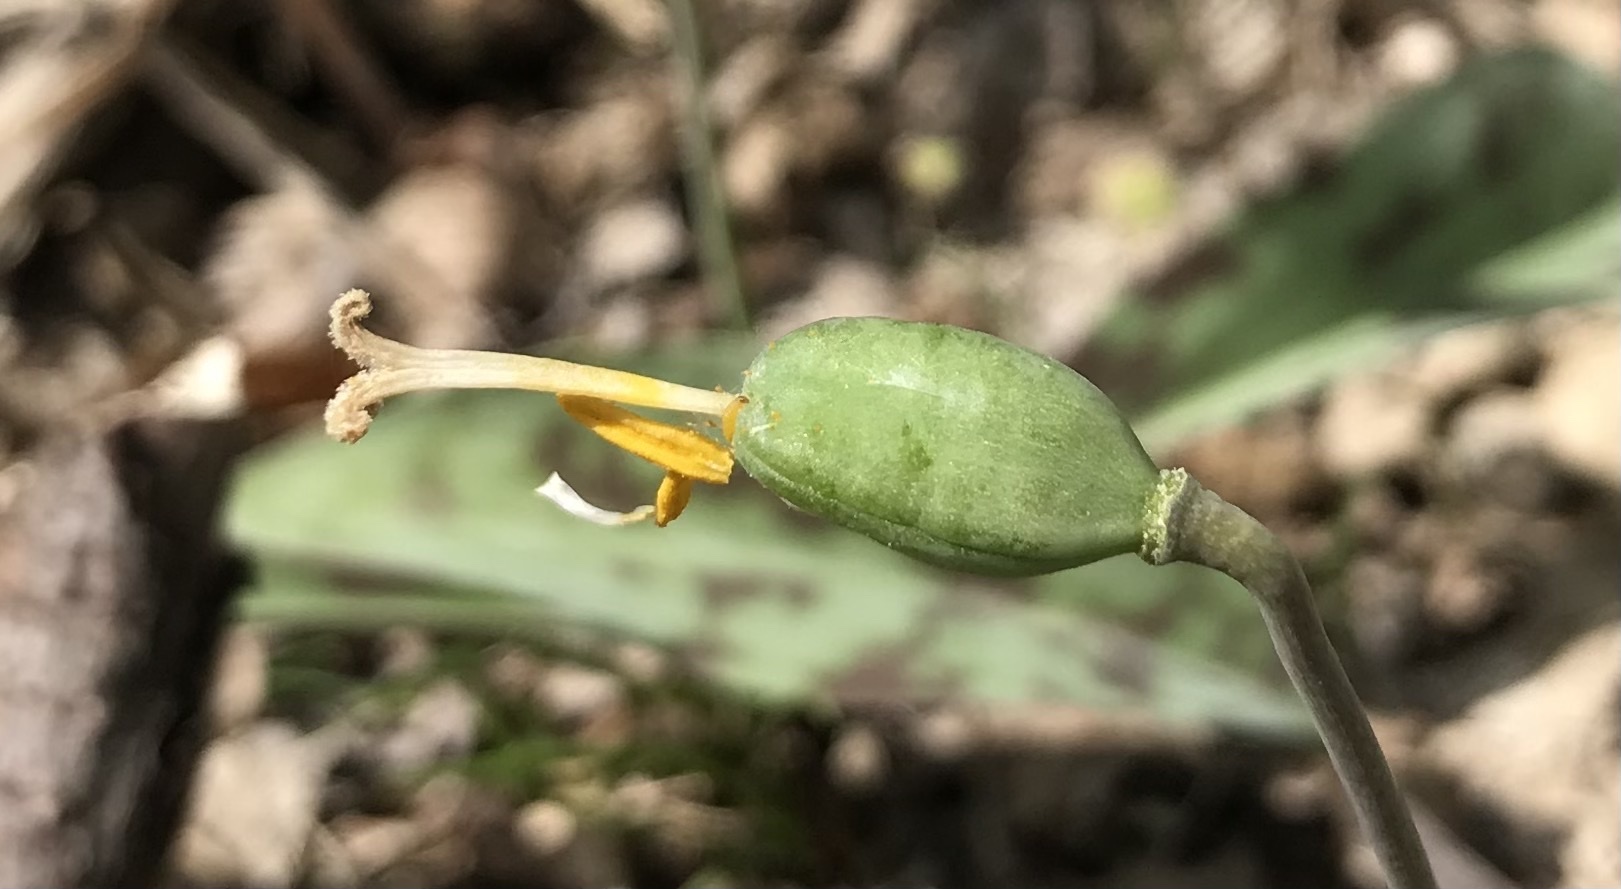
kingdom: Plantae
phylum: Tracheophyta
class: Liliopsida
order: Liliales
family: Liliaceae
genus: Erythronium
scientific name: Erythronium albidum
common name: White trout-lily
